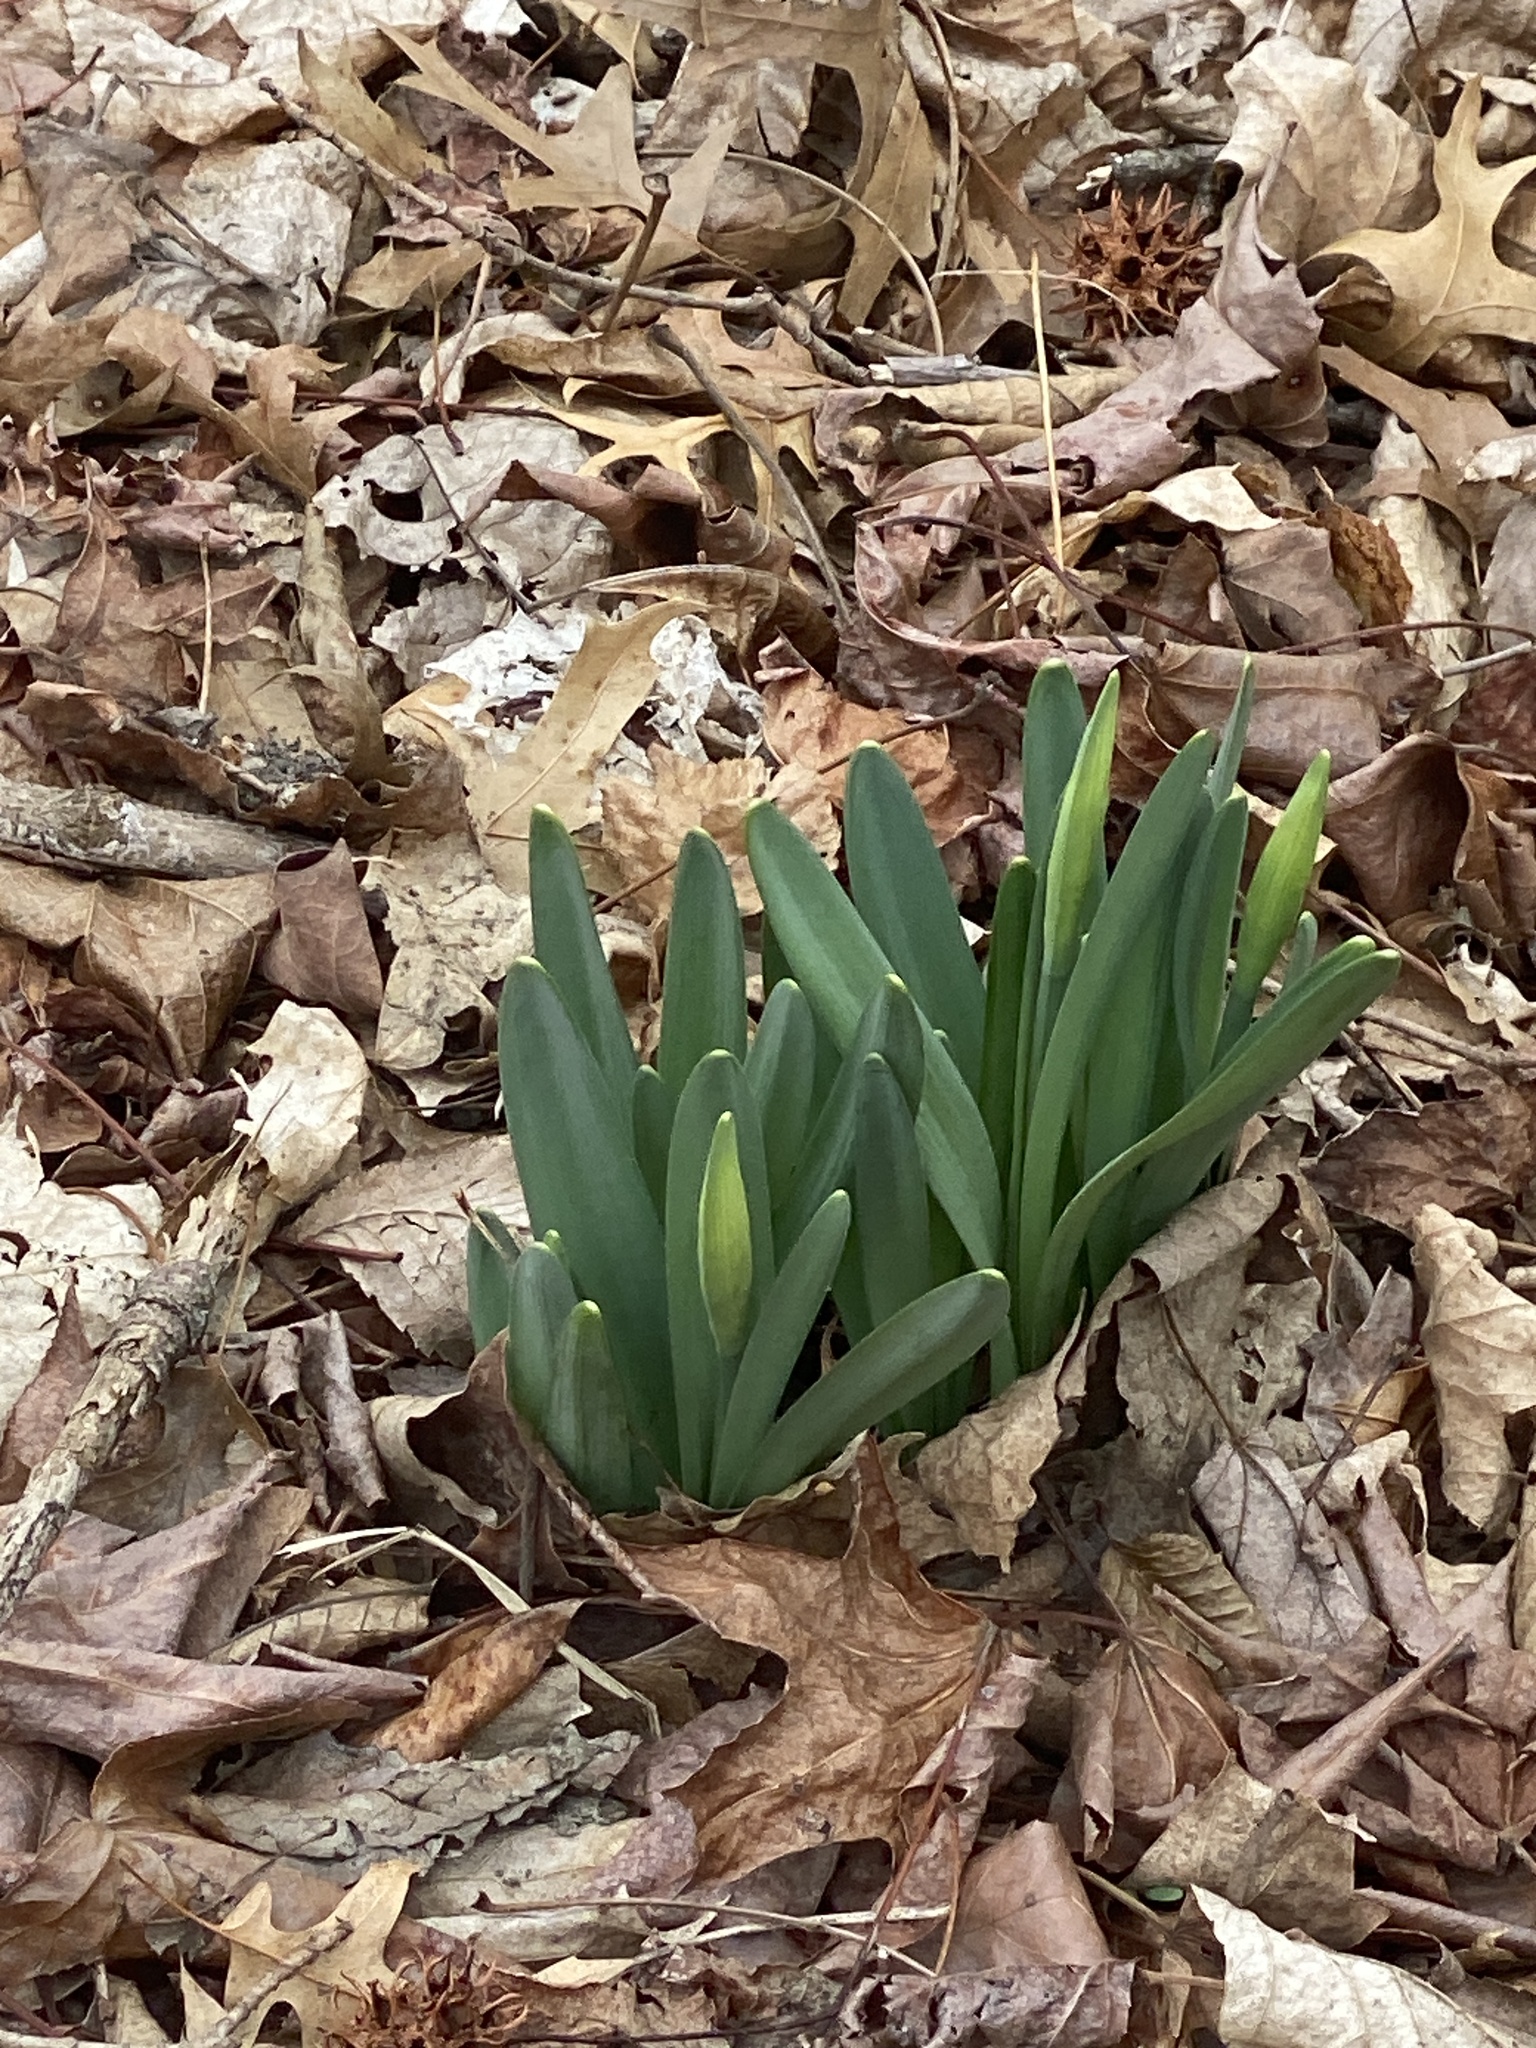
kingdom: Plantae
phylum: Tracheophyta
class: Liliopsida
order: Asparagales
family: Amaryllidaceae
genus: Narcissus
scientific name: Narcissus
